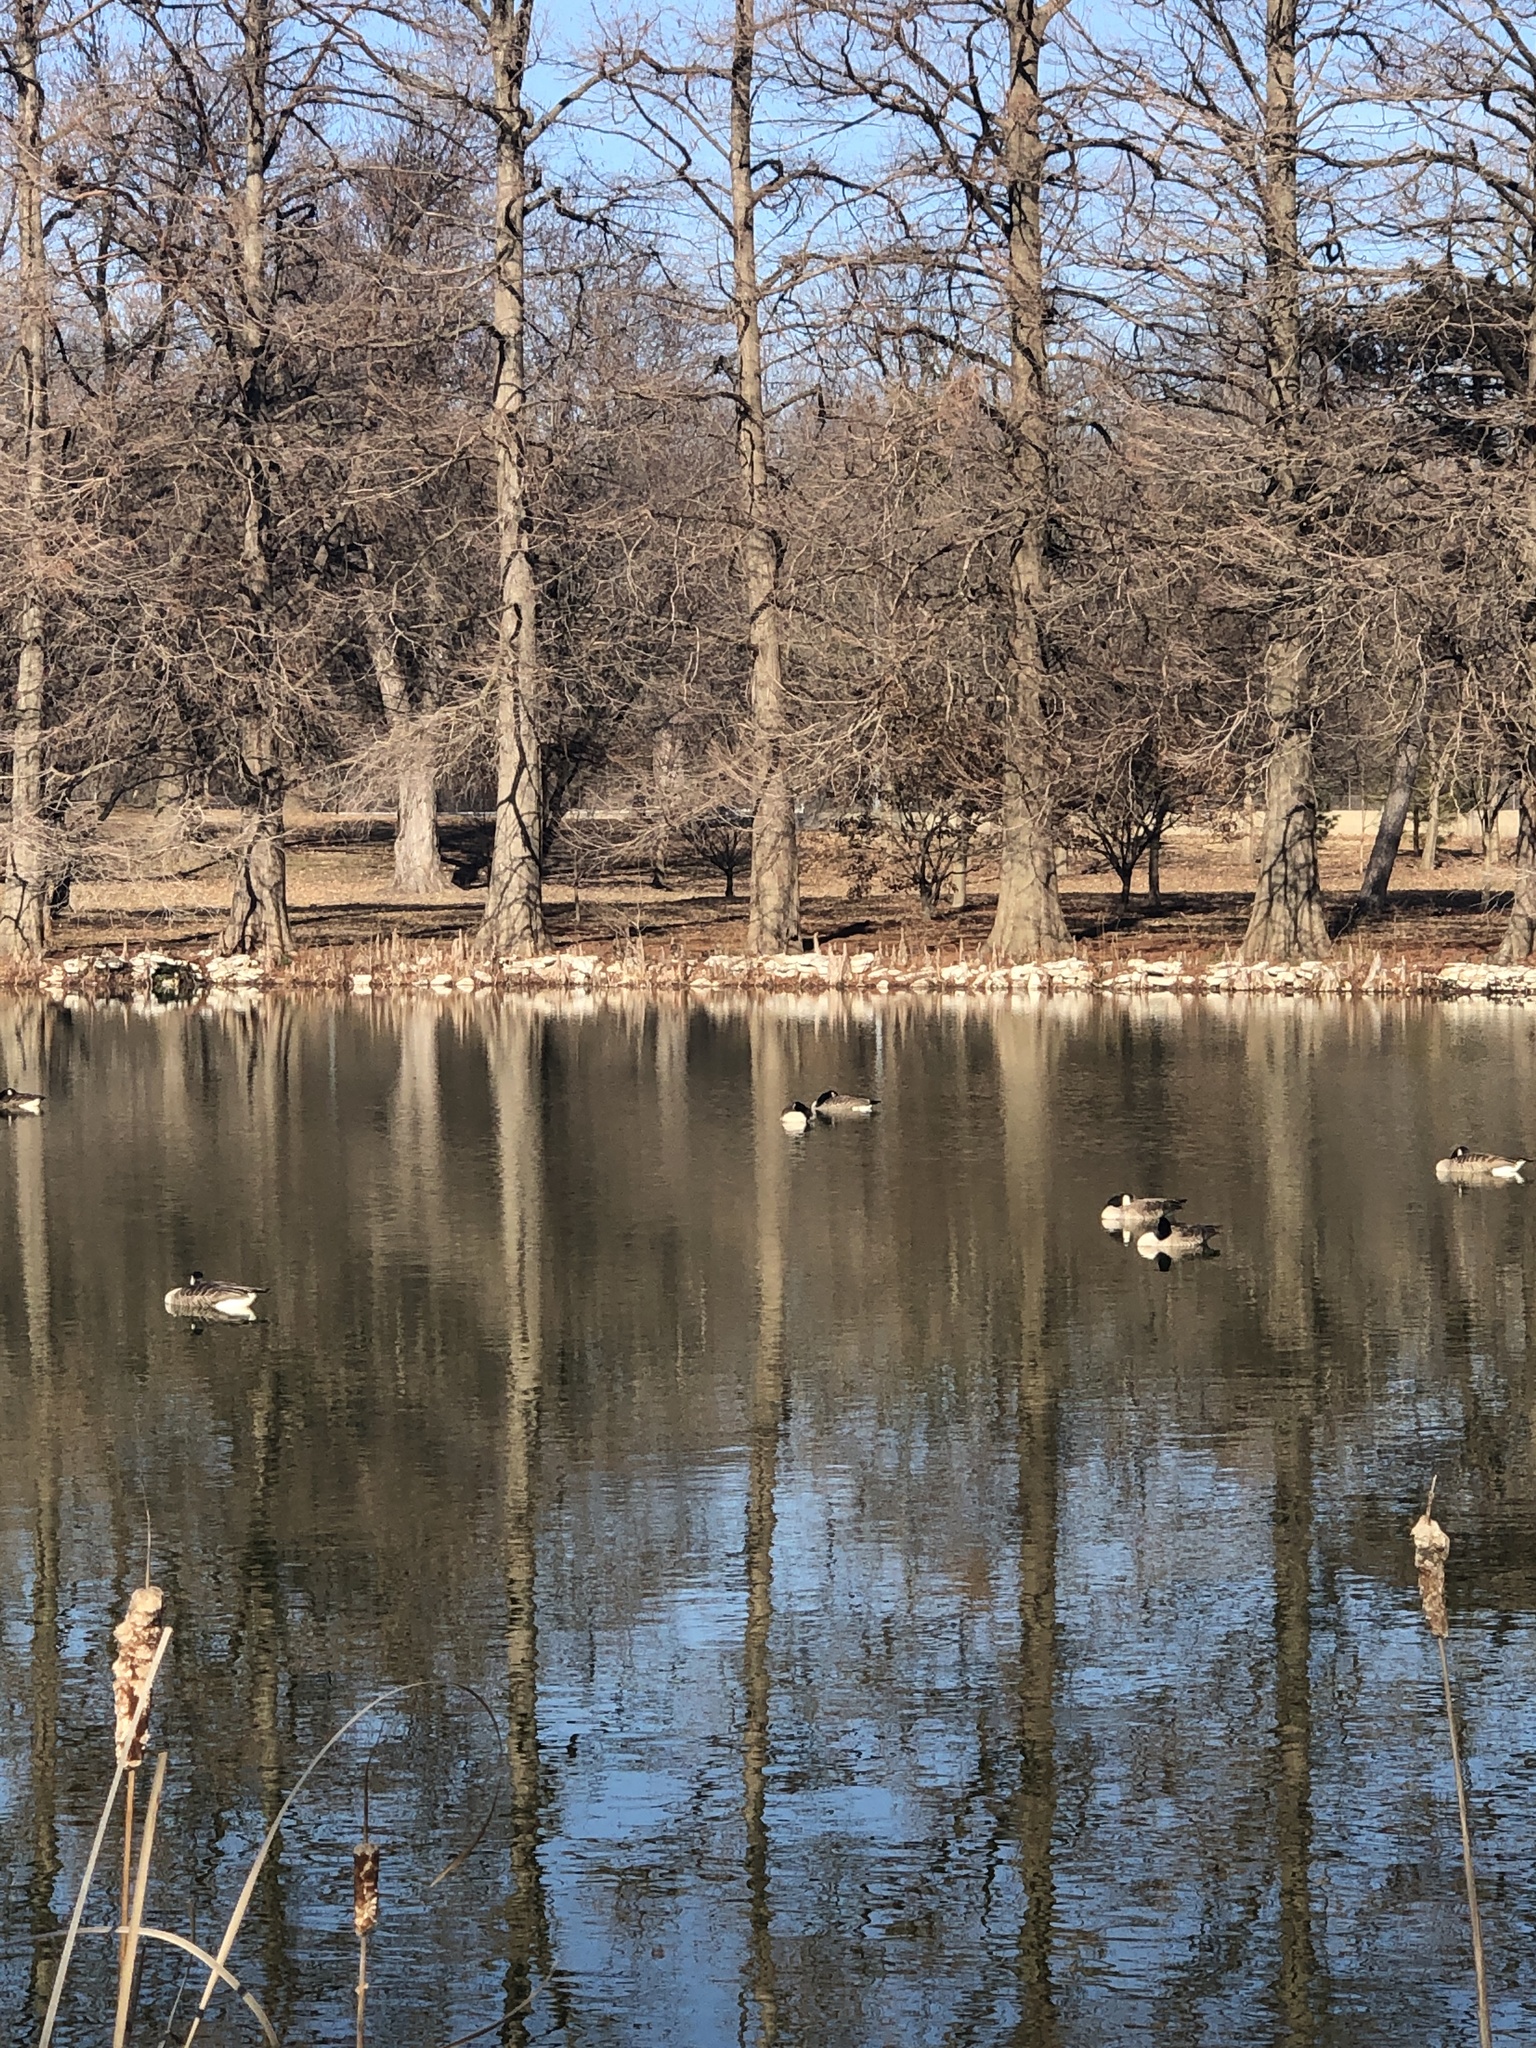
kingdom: Animalia
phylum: Chordata
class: Aves
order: Anseriformes
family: Anatidae
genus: Branta
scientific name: Branta canadensis
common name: Canada goose
